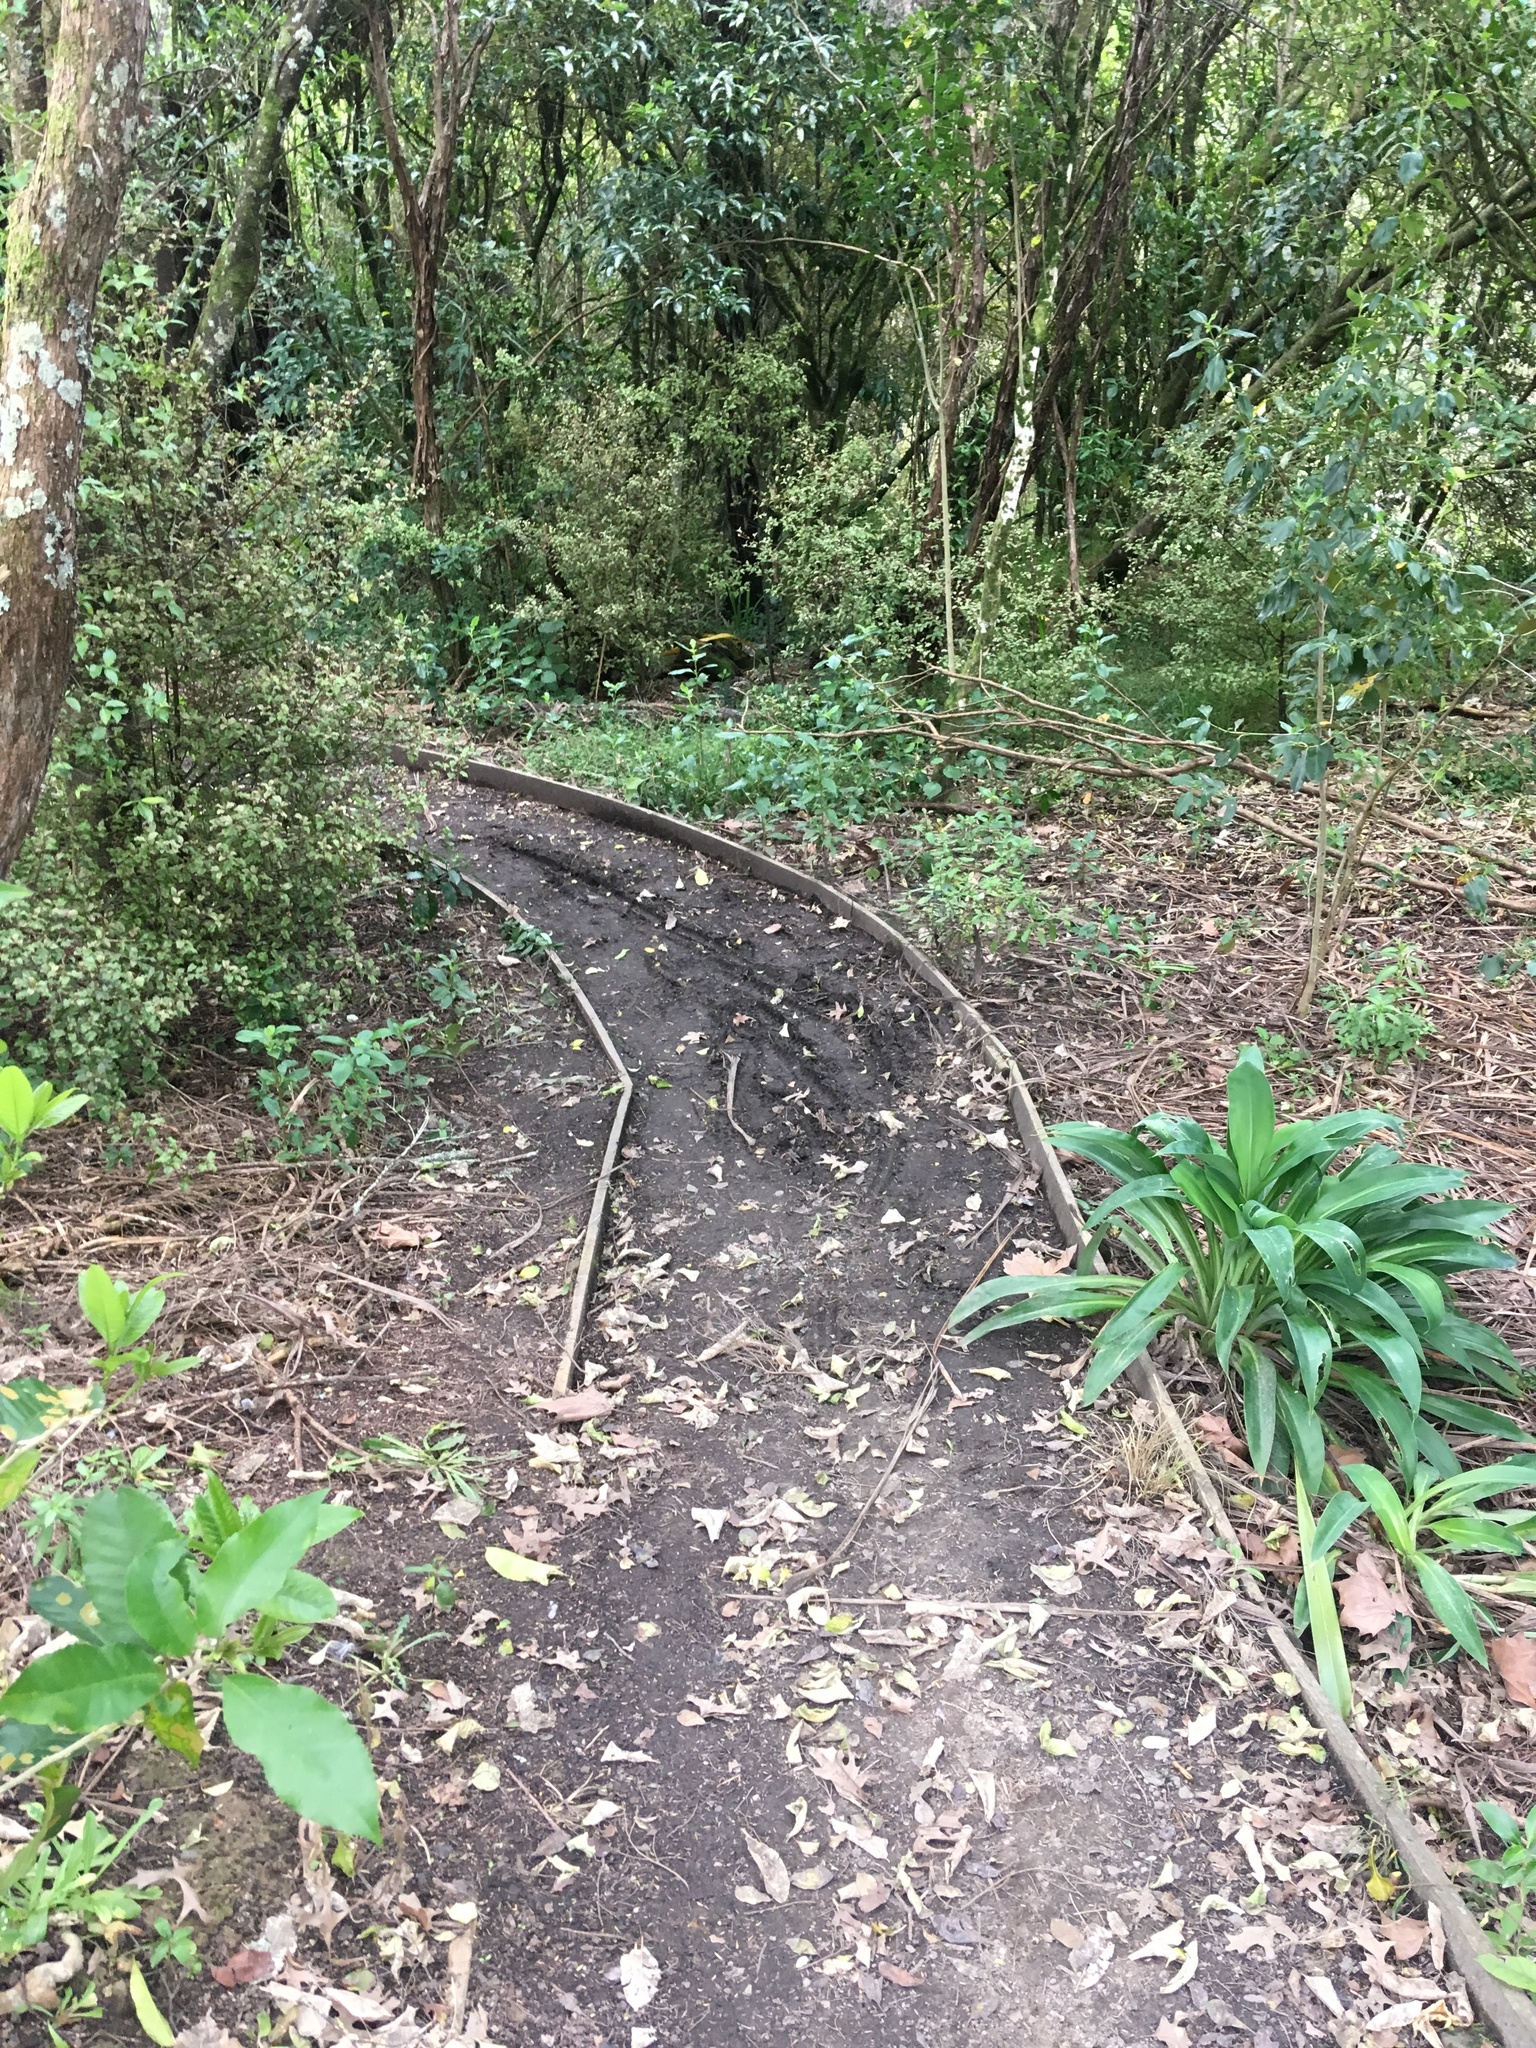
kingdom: Plantae
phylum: Tracheophyta
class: Liliopsida
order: Asparagales
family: Asparagaceae
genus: Arthropodium
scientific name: Arthropodium cirratum
